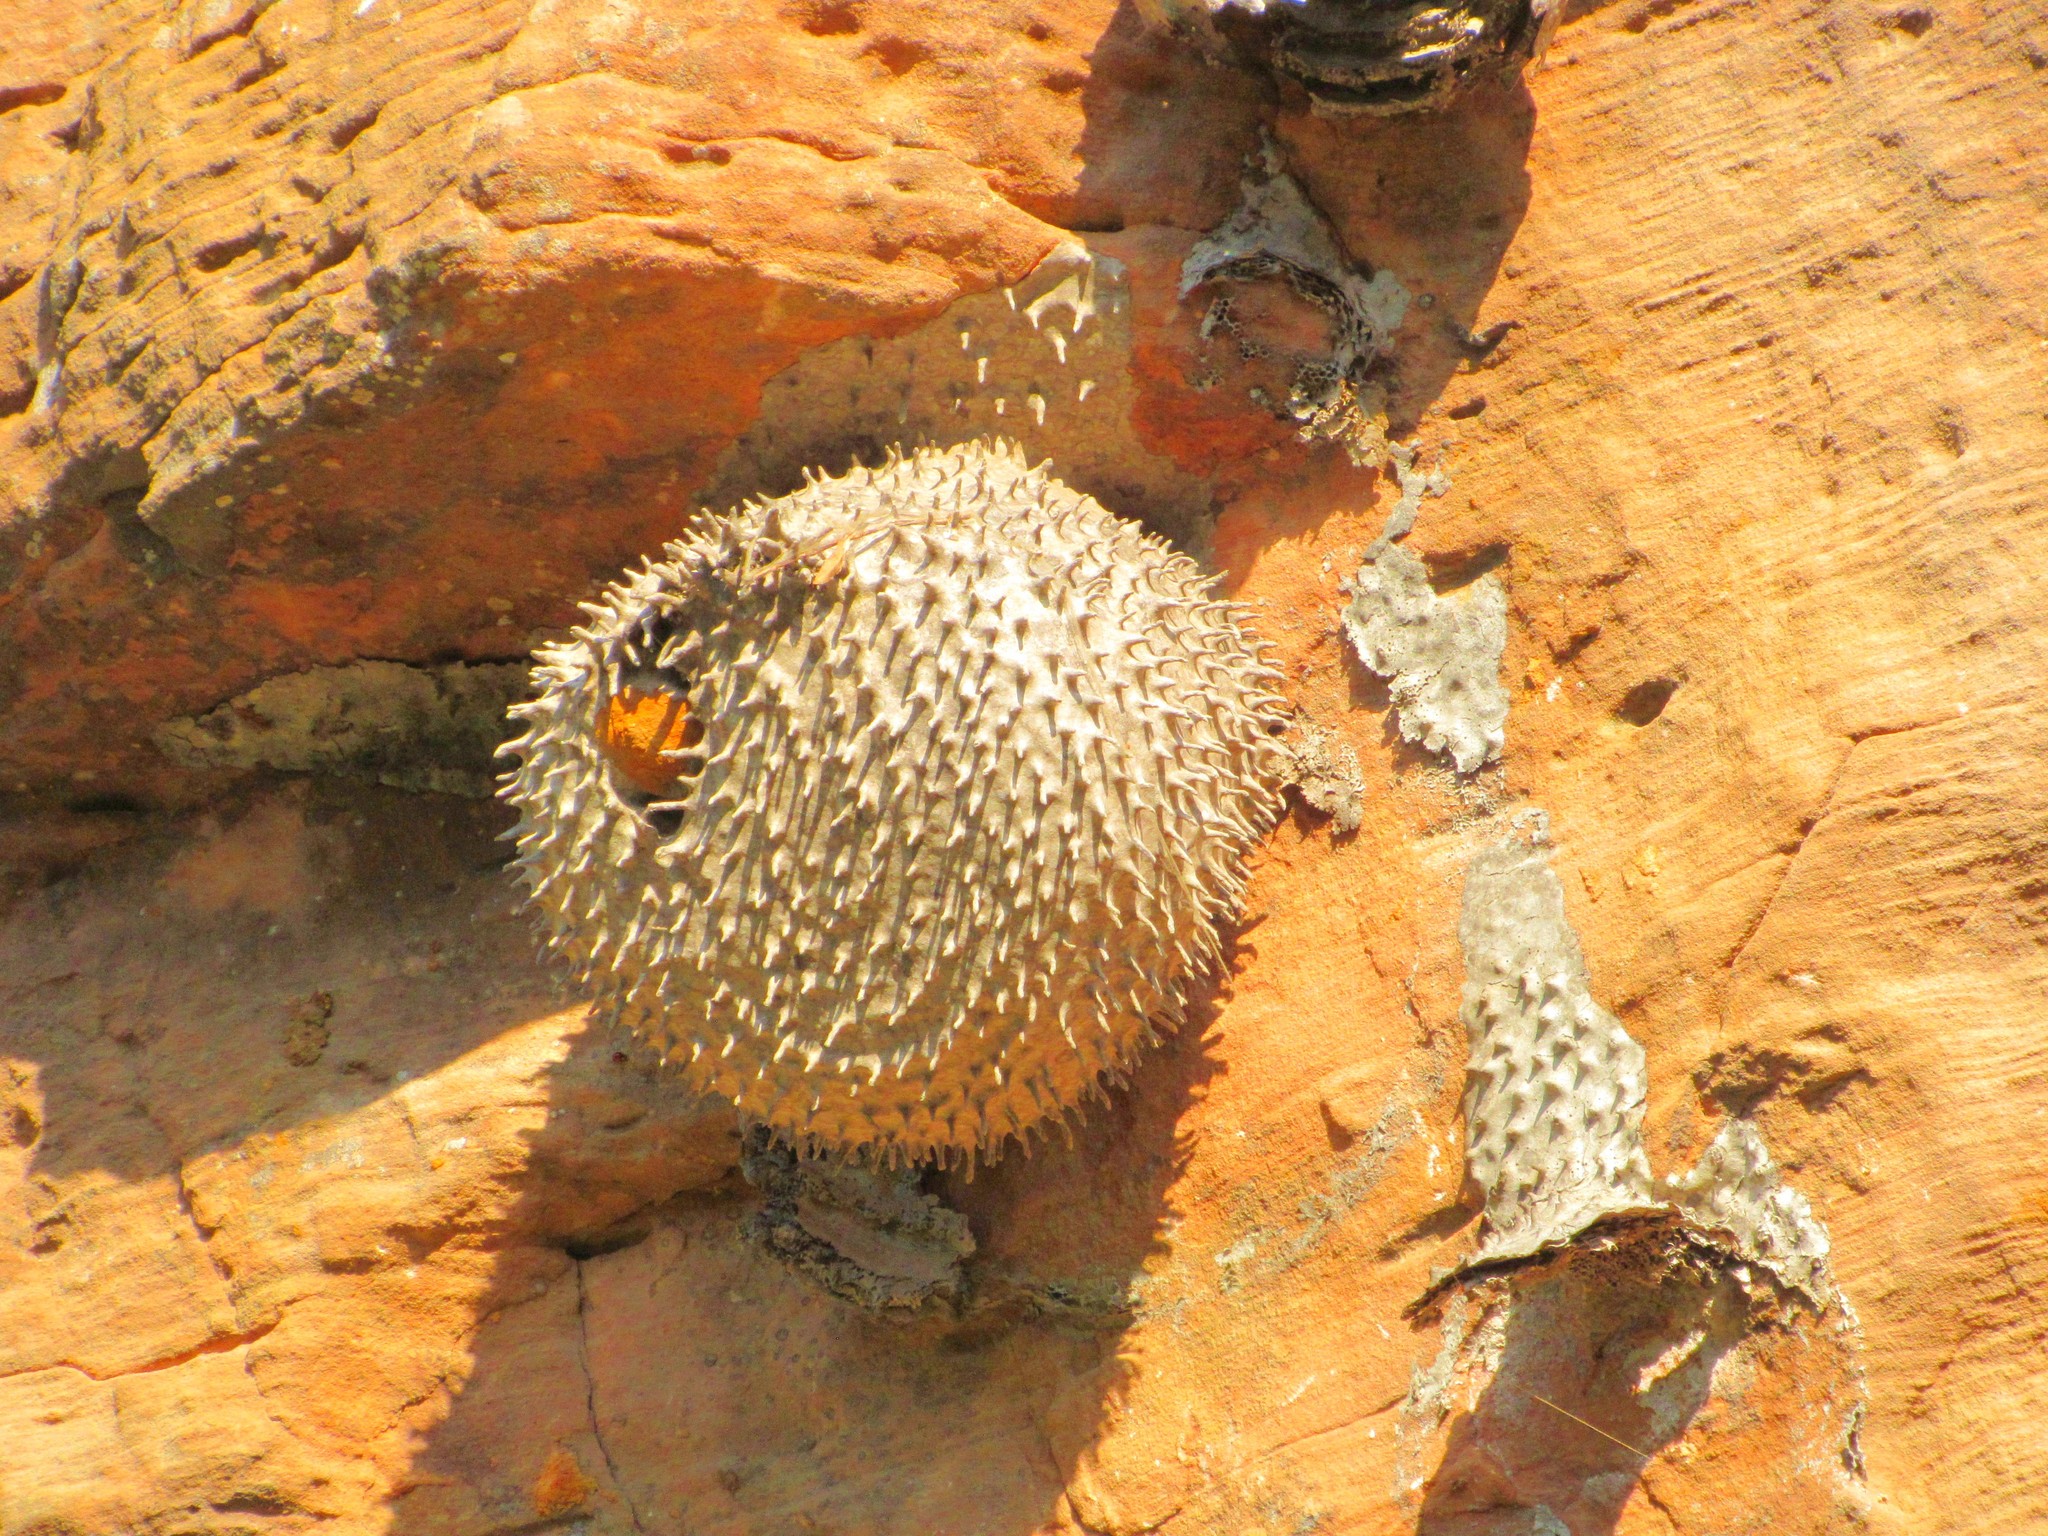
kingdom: Animalia
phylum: Arthropoda
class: Insecta
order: Hymenoptera
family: Eumenidae
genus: Polybia
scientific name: Polybia scutellaris
